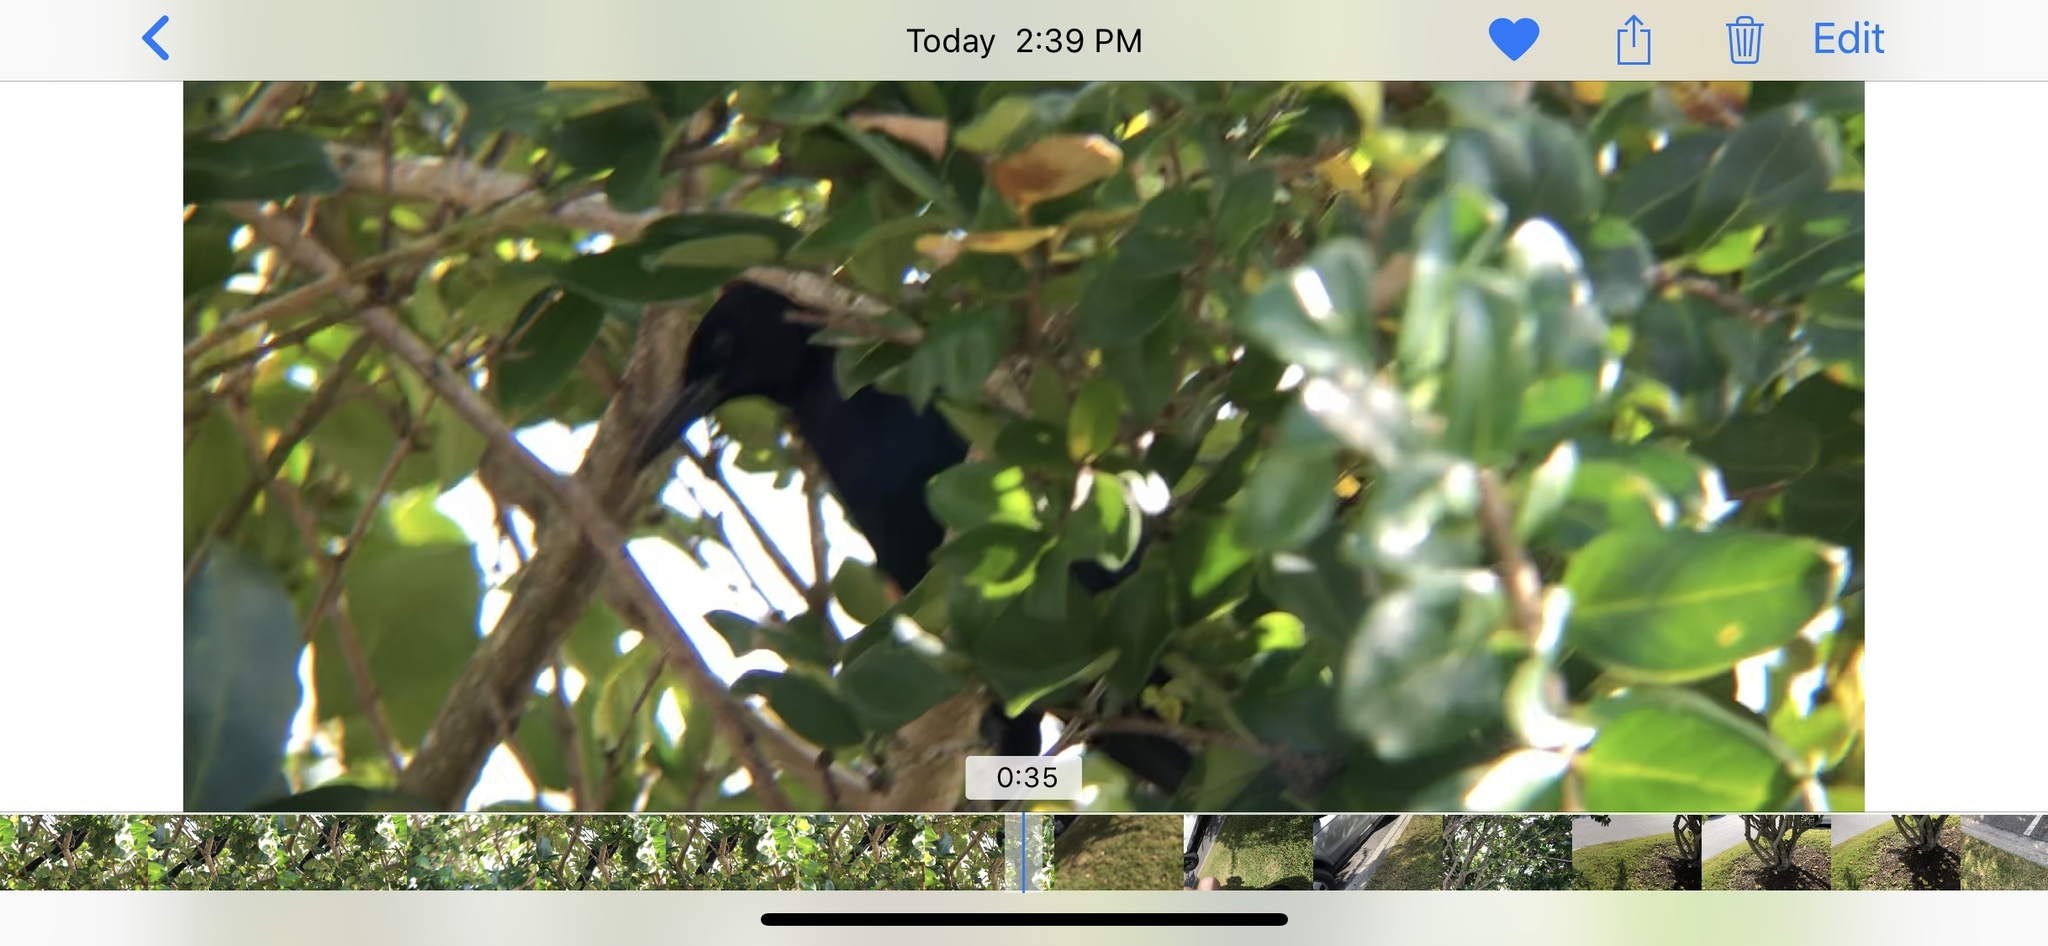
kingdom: Animalia
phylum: Chordata
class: Aves
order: Passeriformes
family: Icteridae
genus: Quiscalus
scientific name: Quiscalus major
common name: Boat-tailed grackle
